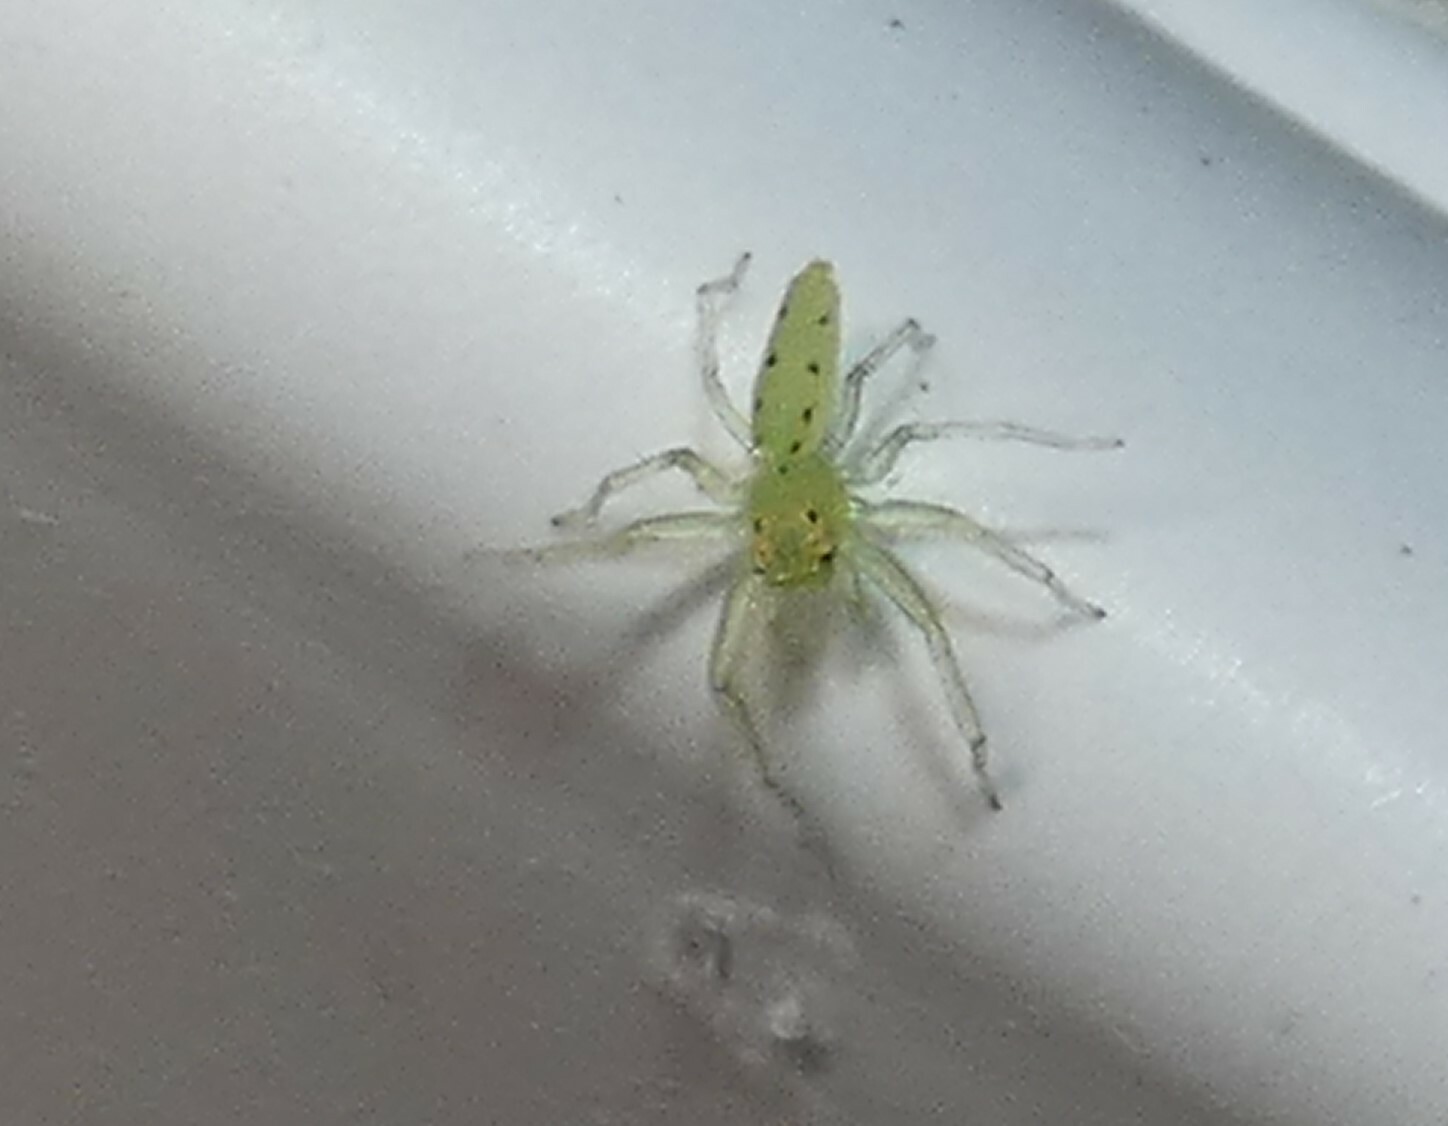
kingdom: Animalia
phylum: Arthropoda
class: Arachnida
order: Araneae
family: Salticidae
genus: Lyssomanes
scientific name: Lyssomanes viridis
